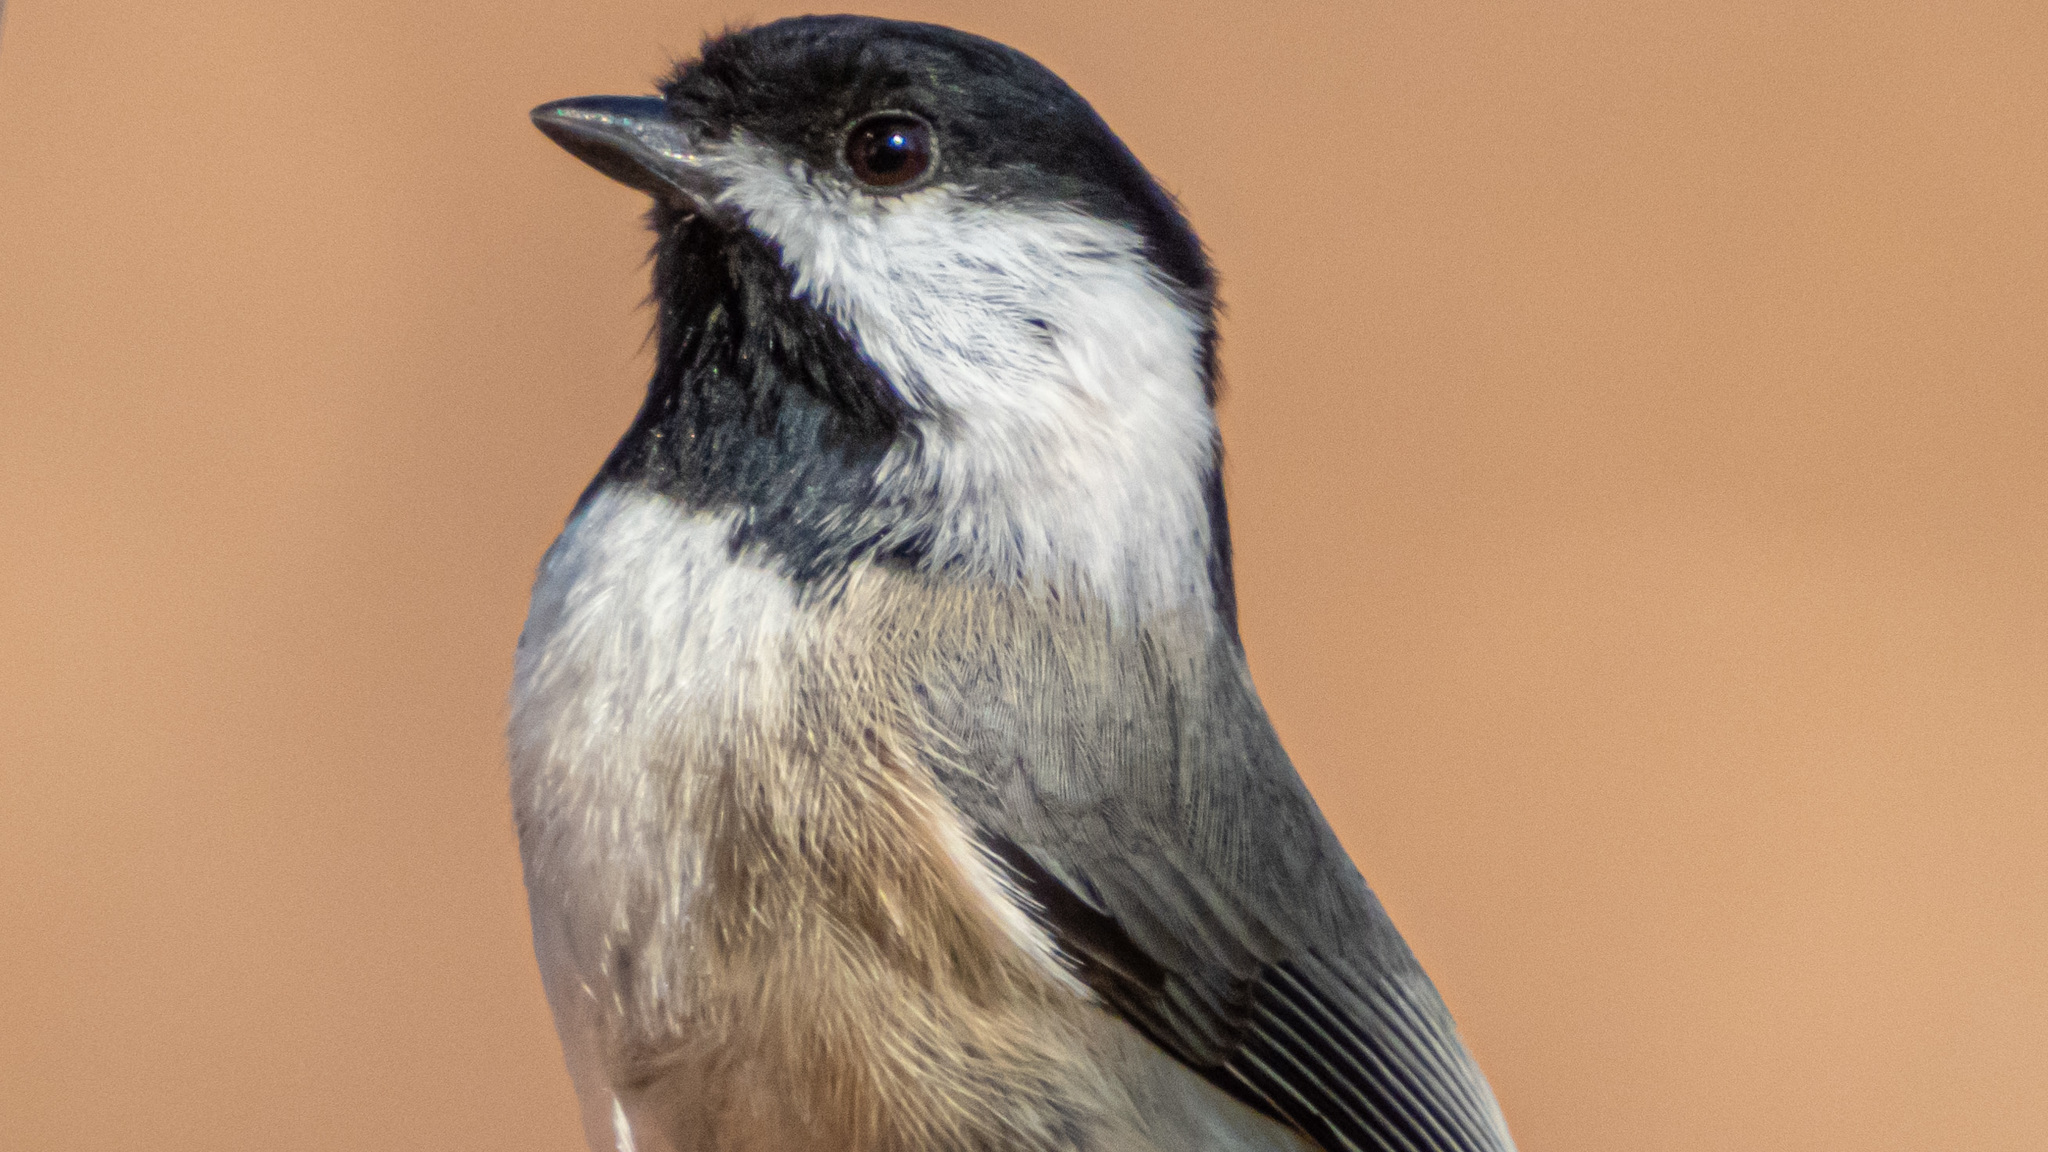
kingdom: Animalia
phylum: Chordata
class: Aves
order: Passeriformes
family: Paridae
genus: Poecile
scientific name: Poecile carolinensis
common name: Carolina chickadee
